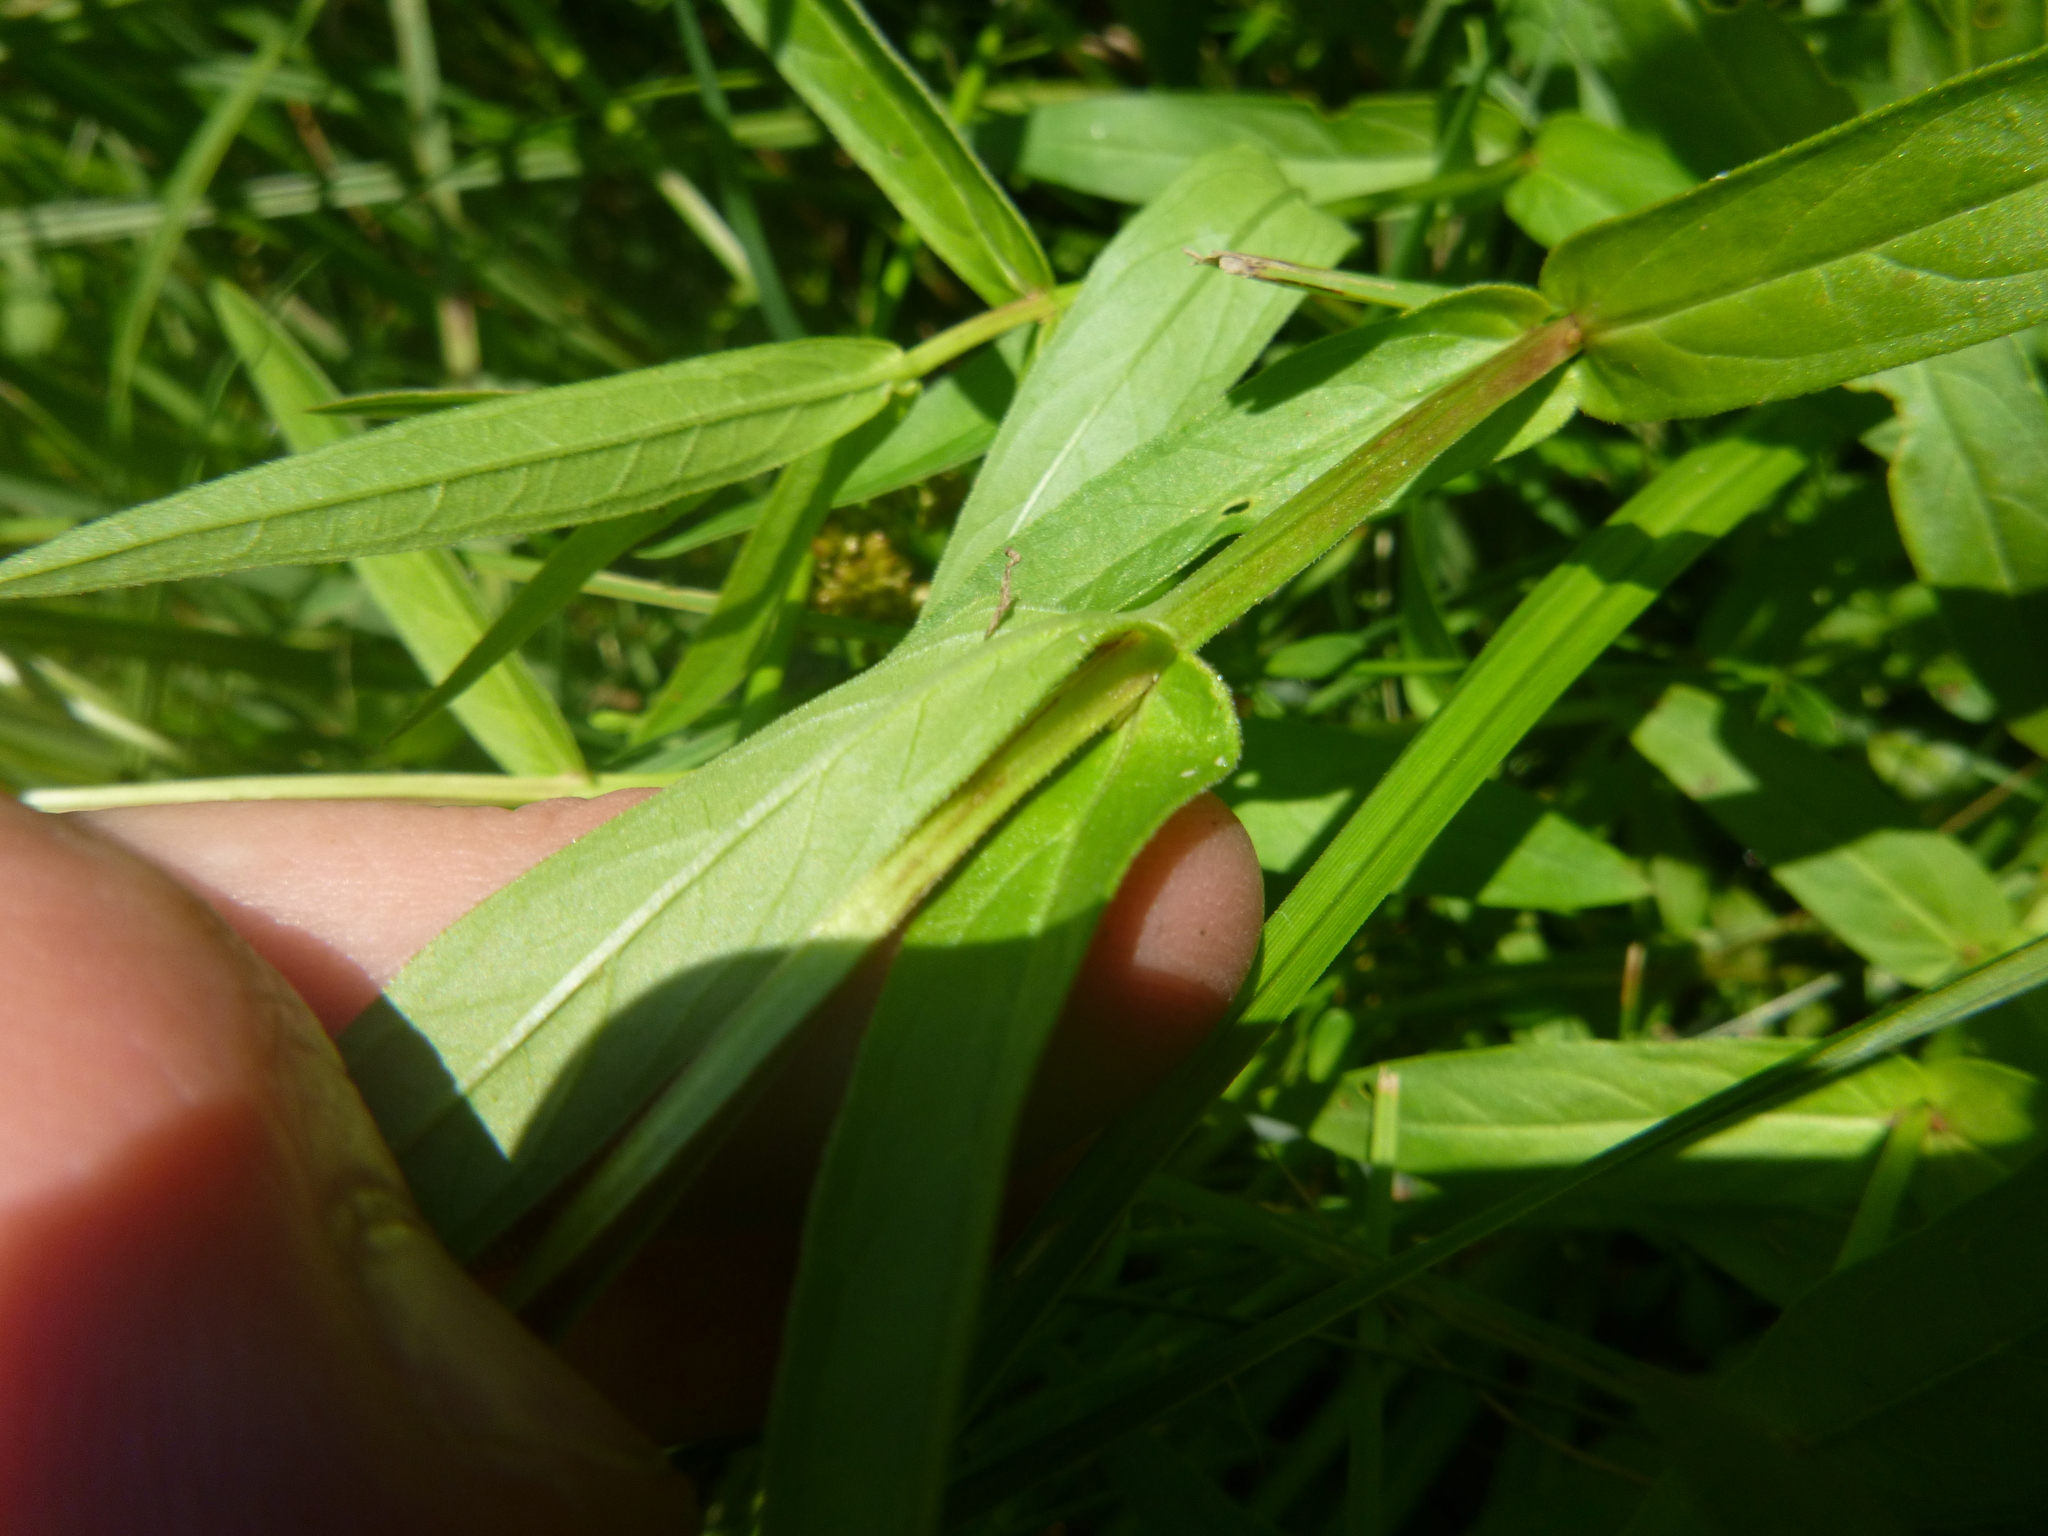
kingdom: Plantae
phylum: Tracheophyta
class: Magnoliopsida
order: Myrtales
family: Lythraceae
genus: Lythrum
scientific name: Lythrum salicaria
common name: Purple loosestrife
